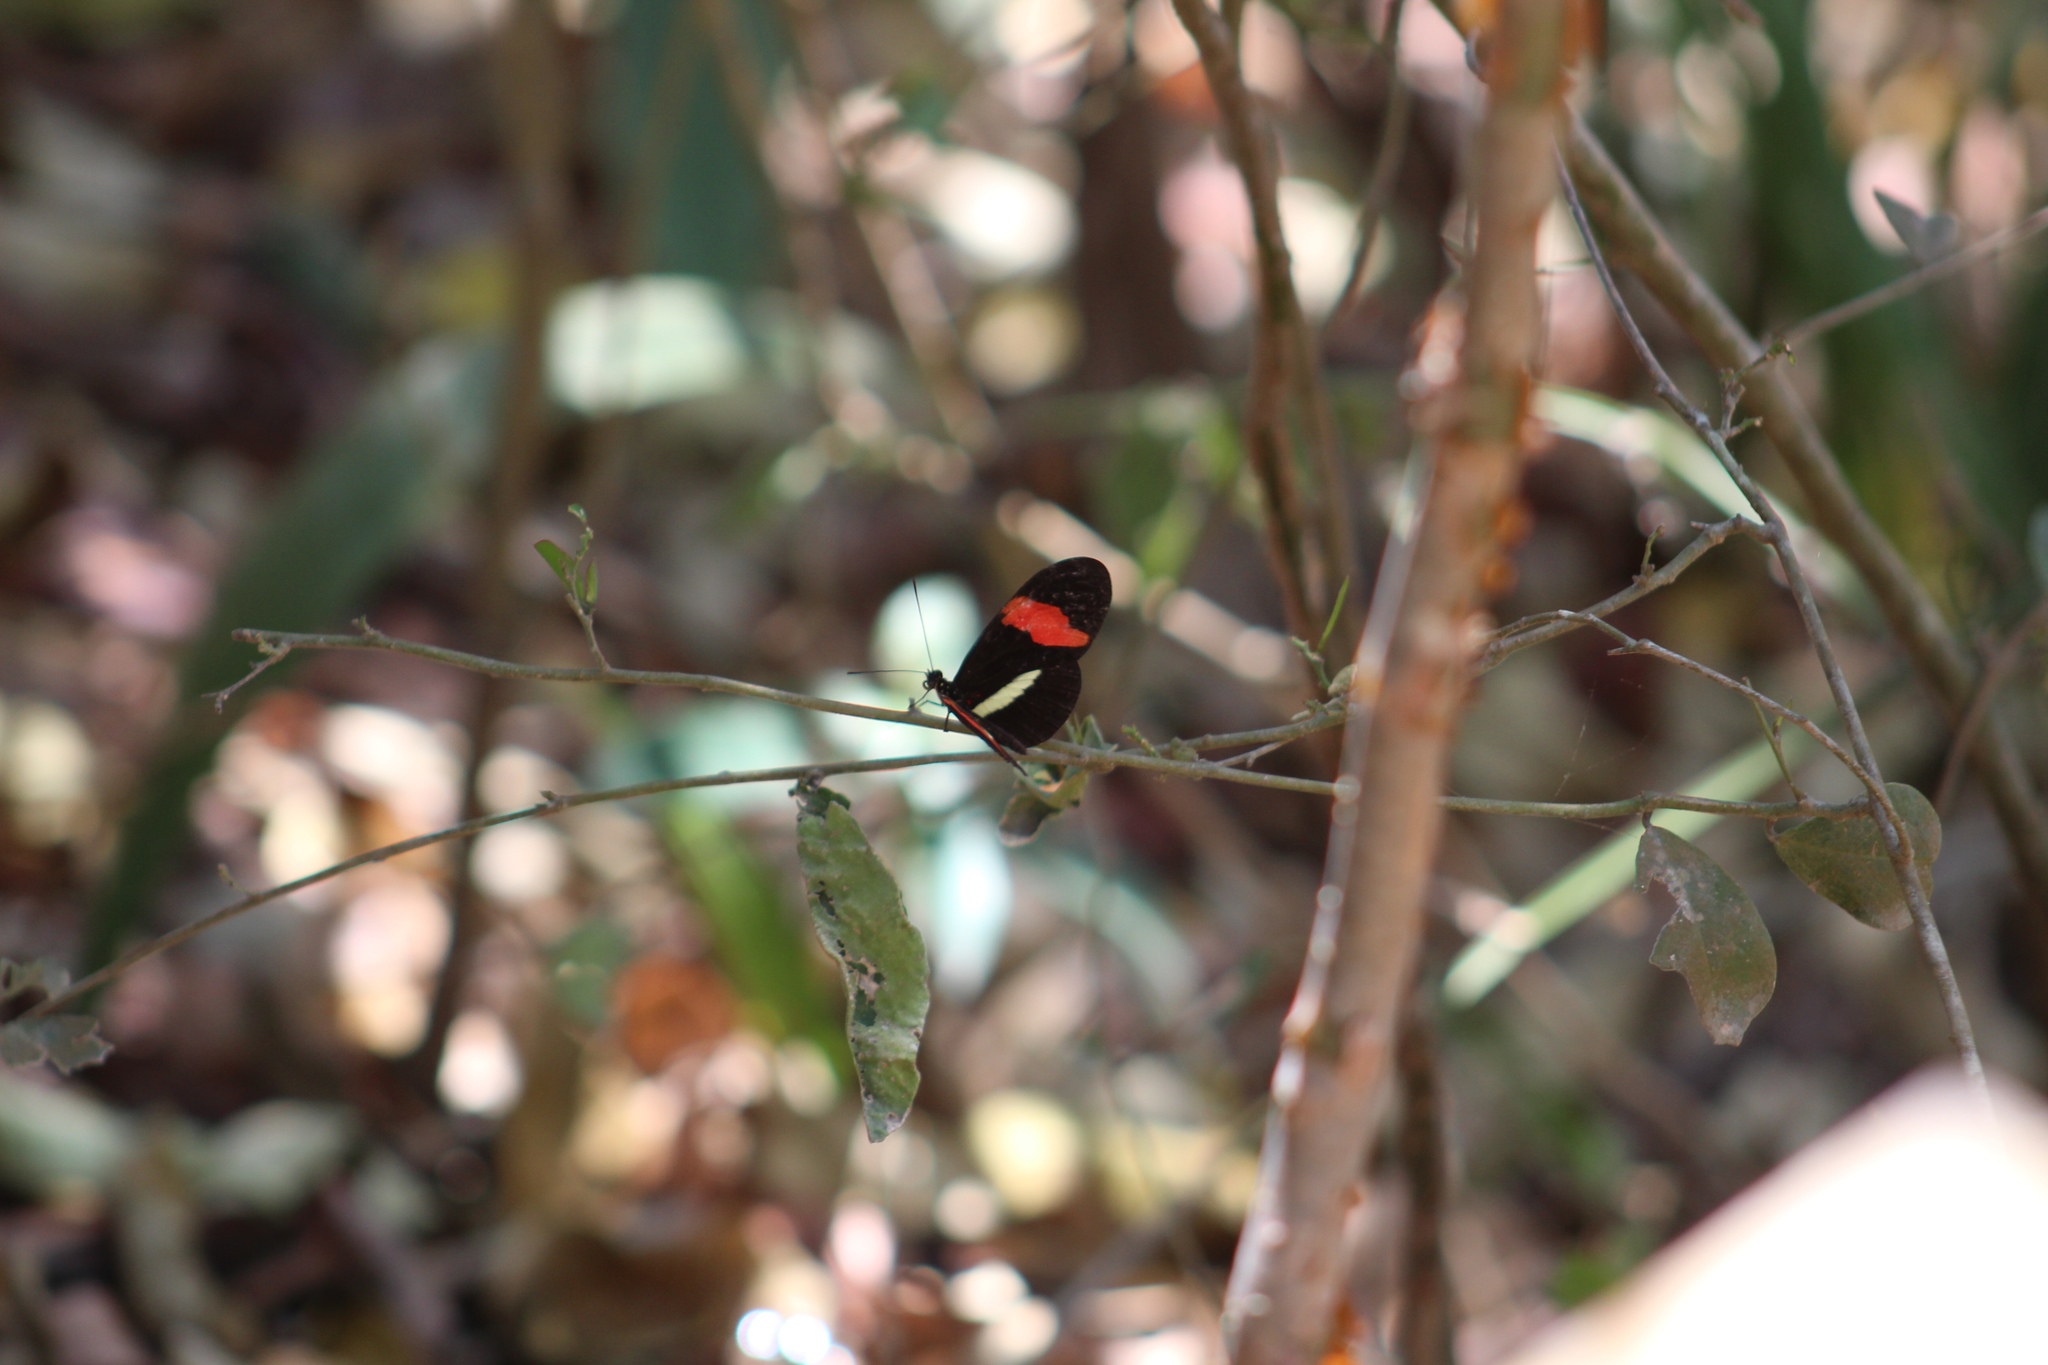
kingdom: Animalia
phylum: Arthropoda
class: Insecta
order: Lepidoptera
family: Nymphalidae
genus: Heliconius
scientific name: Heliconius erato
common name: Common patch longwing
